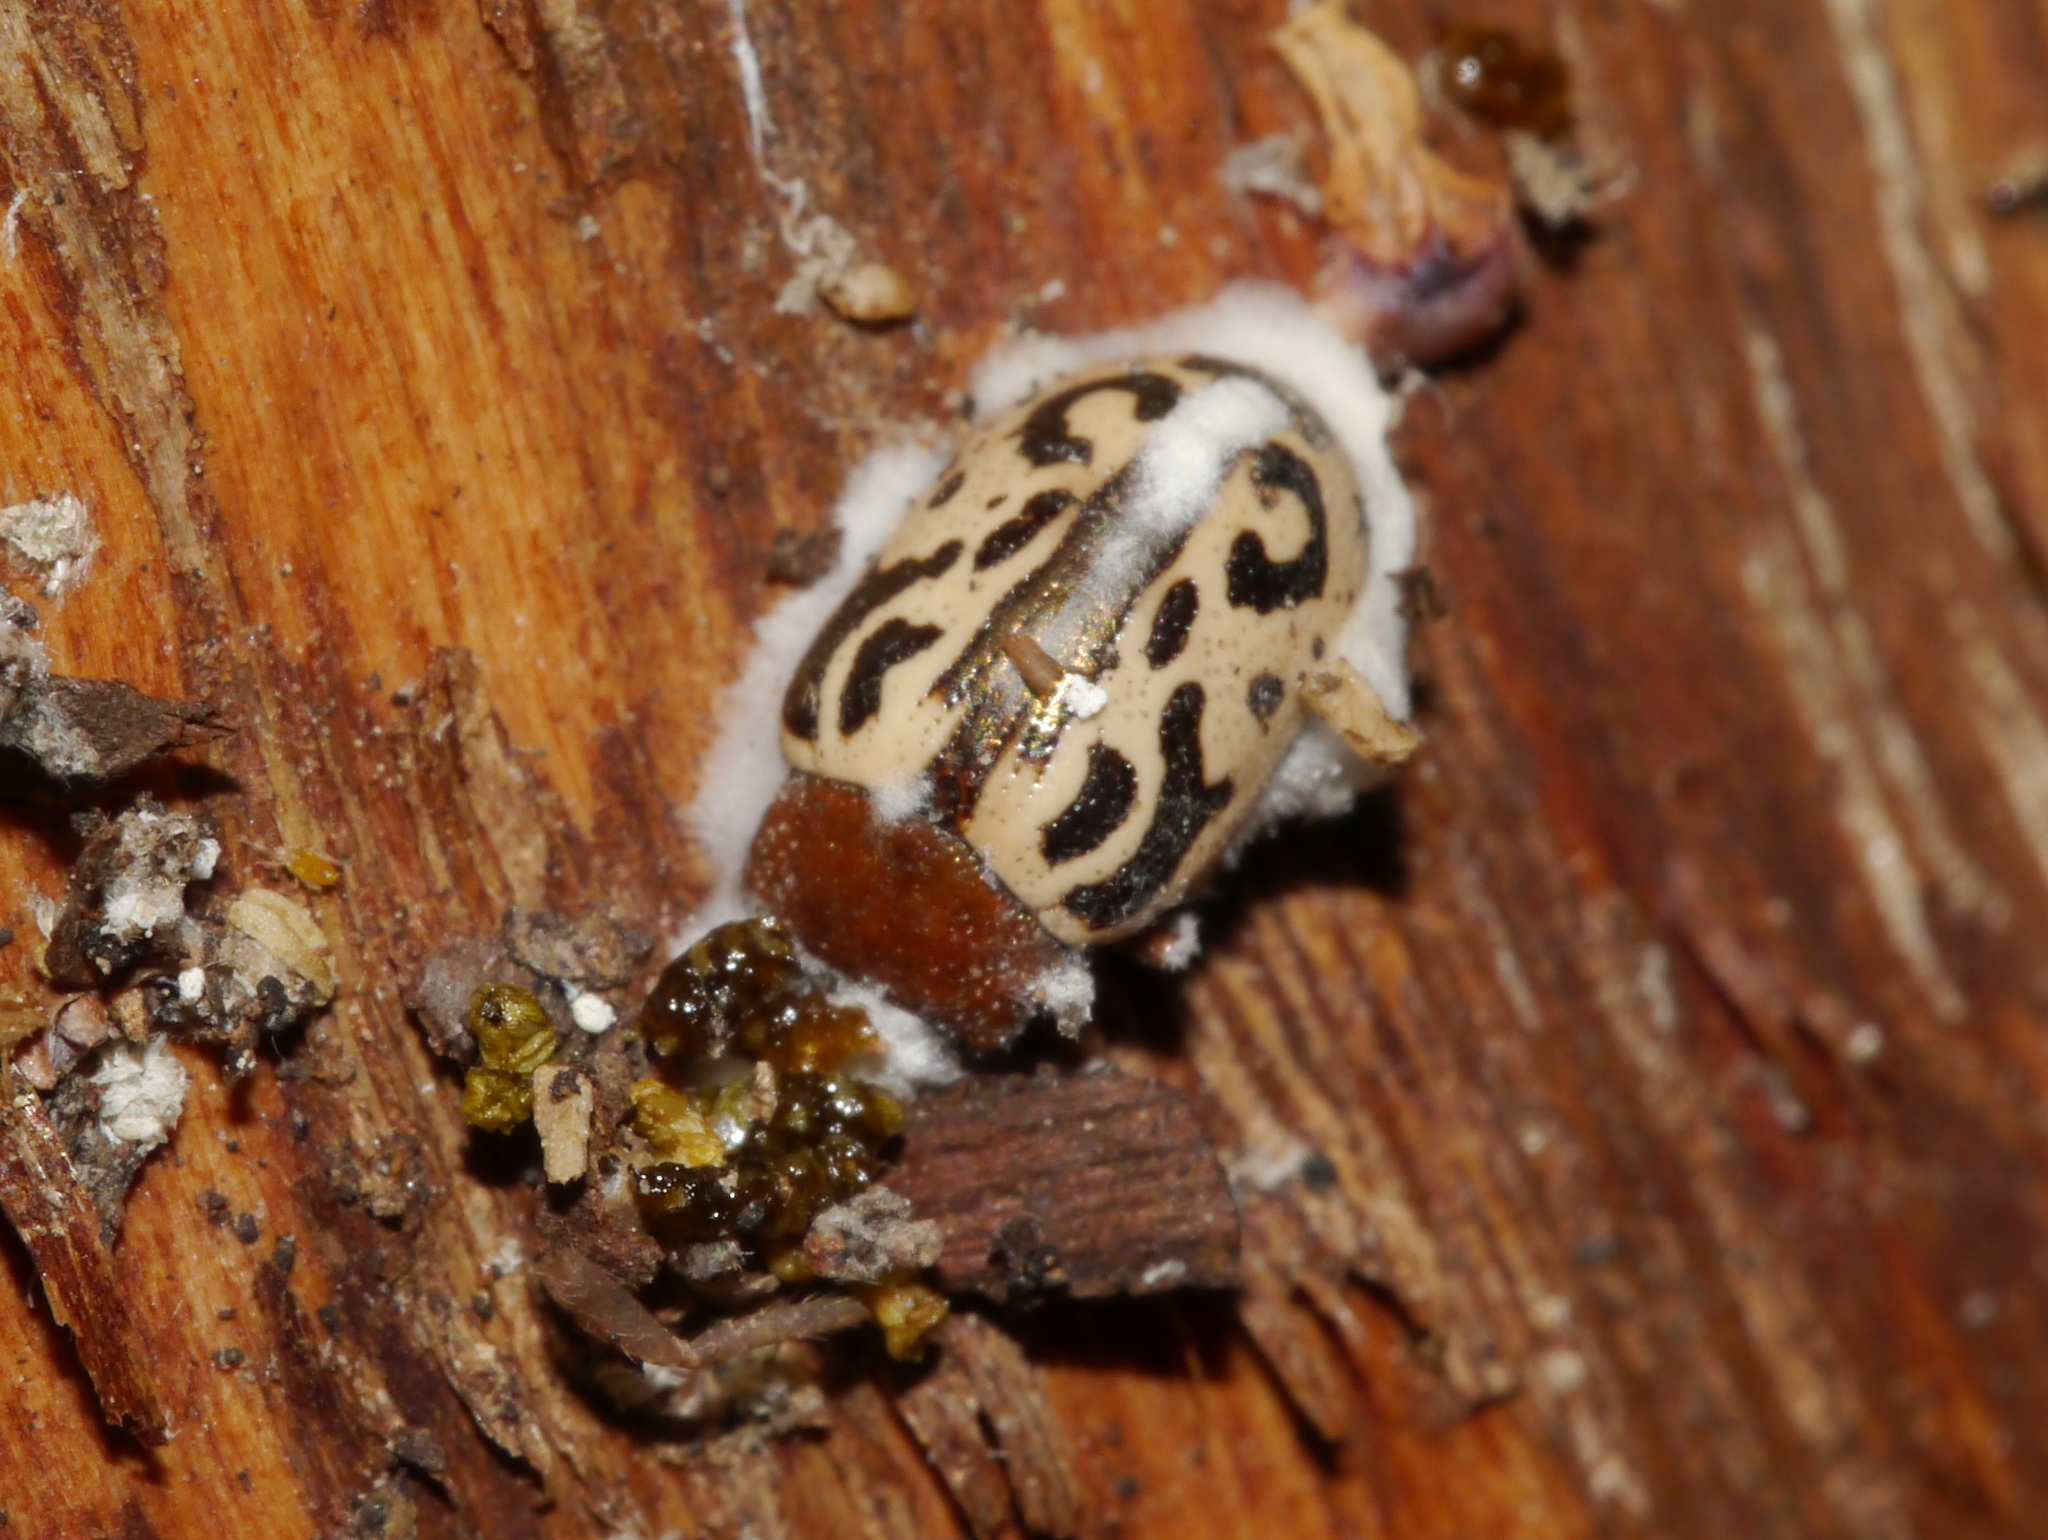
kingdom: Animalia
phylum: Arthropoda
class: Insecta
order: Coleoptera
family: Chrysomelidae
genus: Calligrapha
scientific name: Calligrapha
